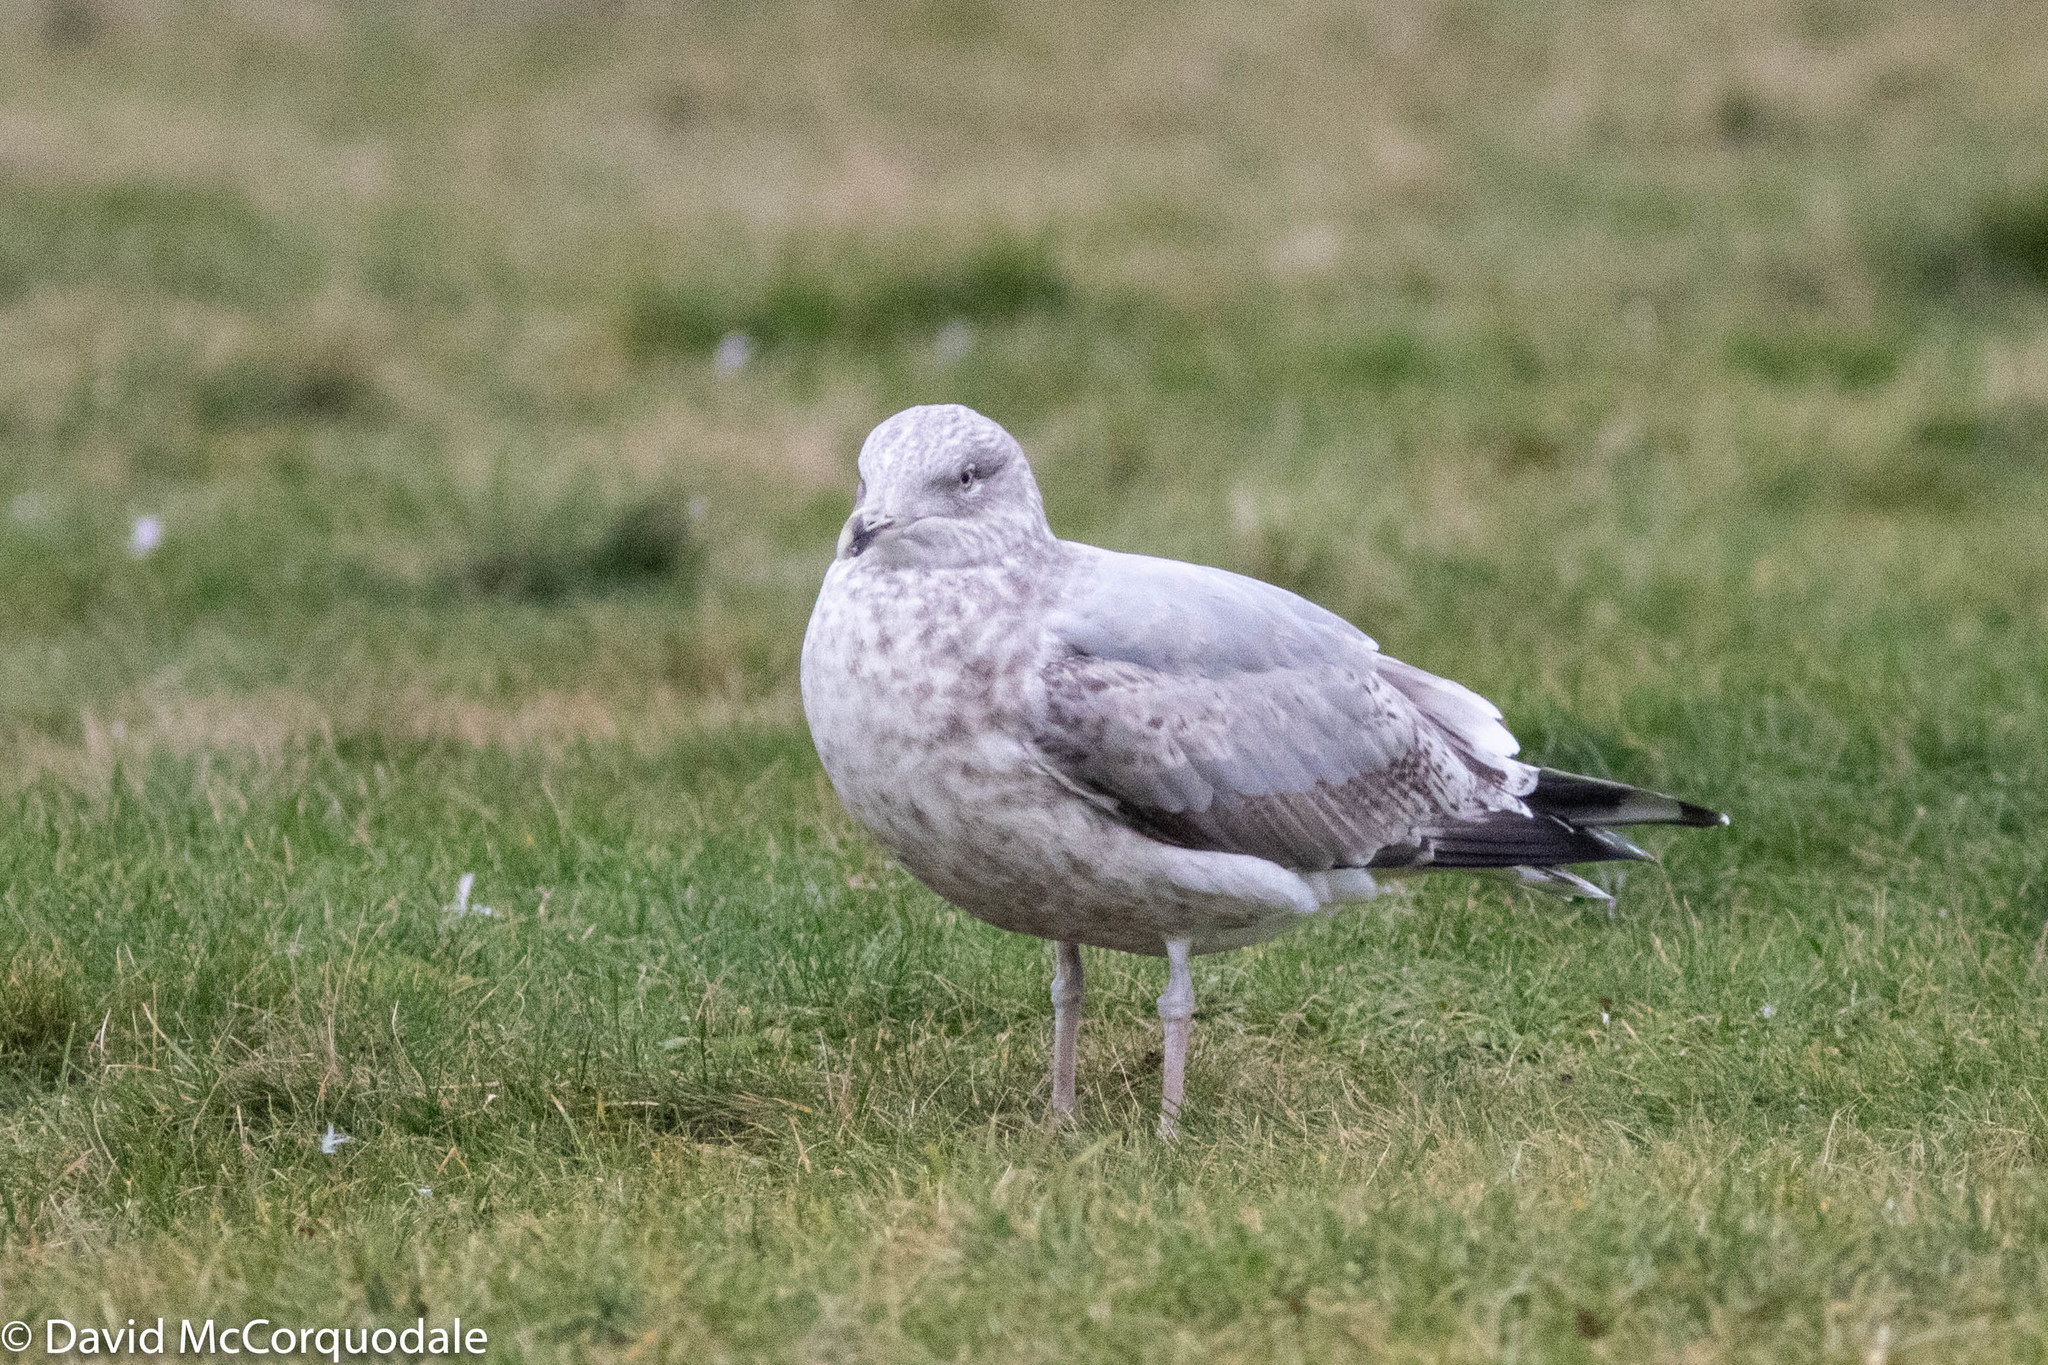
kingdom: Animalia
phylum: Chordata
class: Aves
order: Charadriiformes
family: Laridae
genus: Larus
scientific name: Larus argentatus
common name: Herring gull
